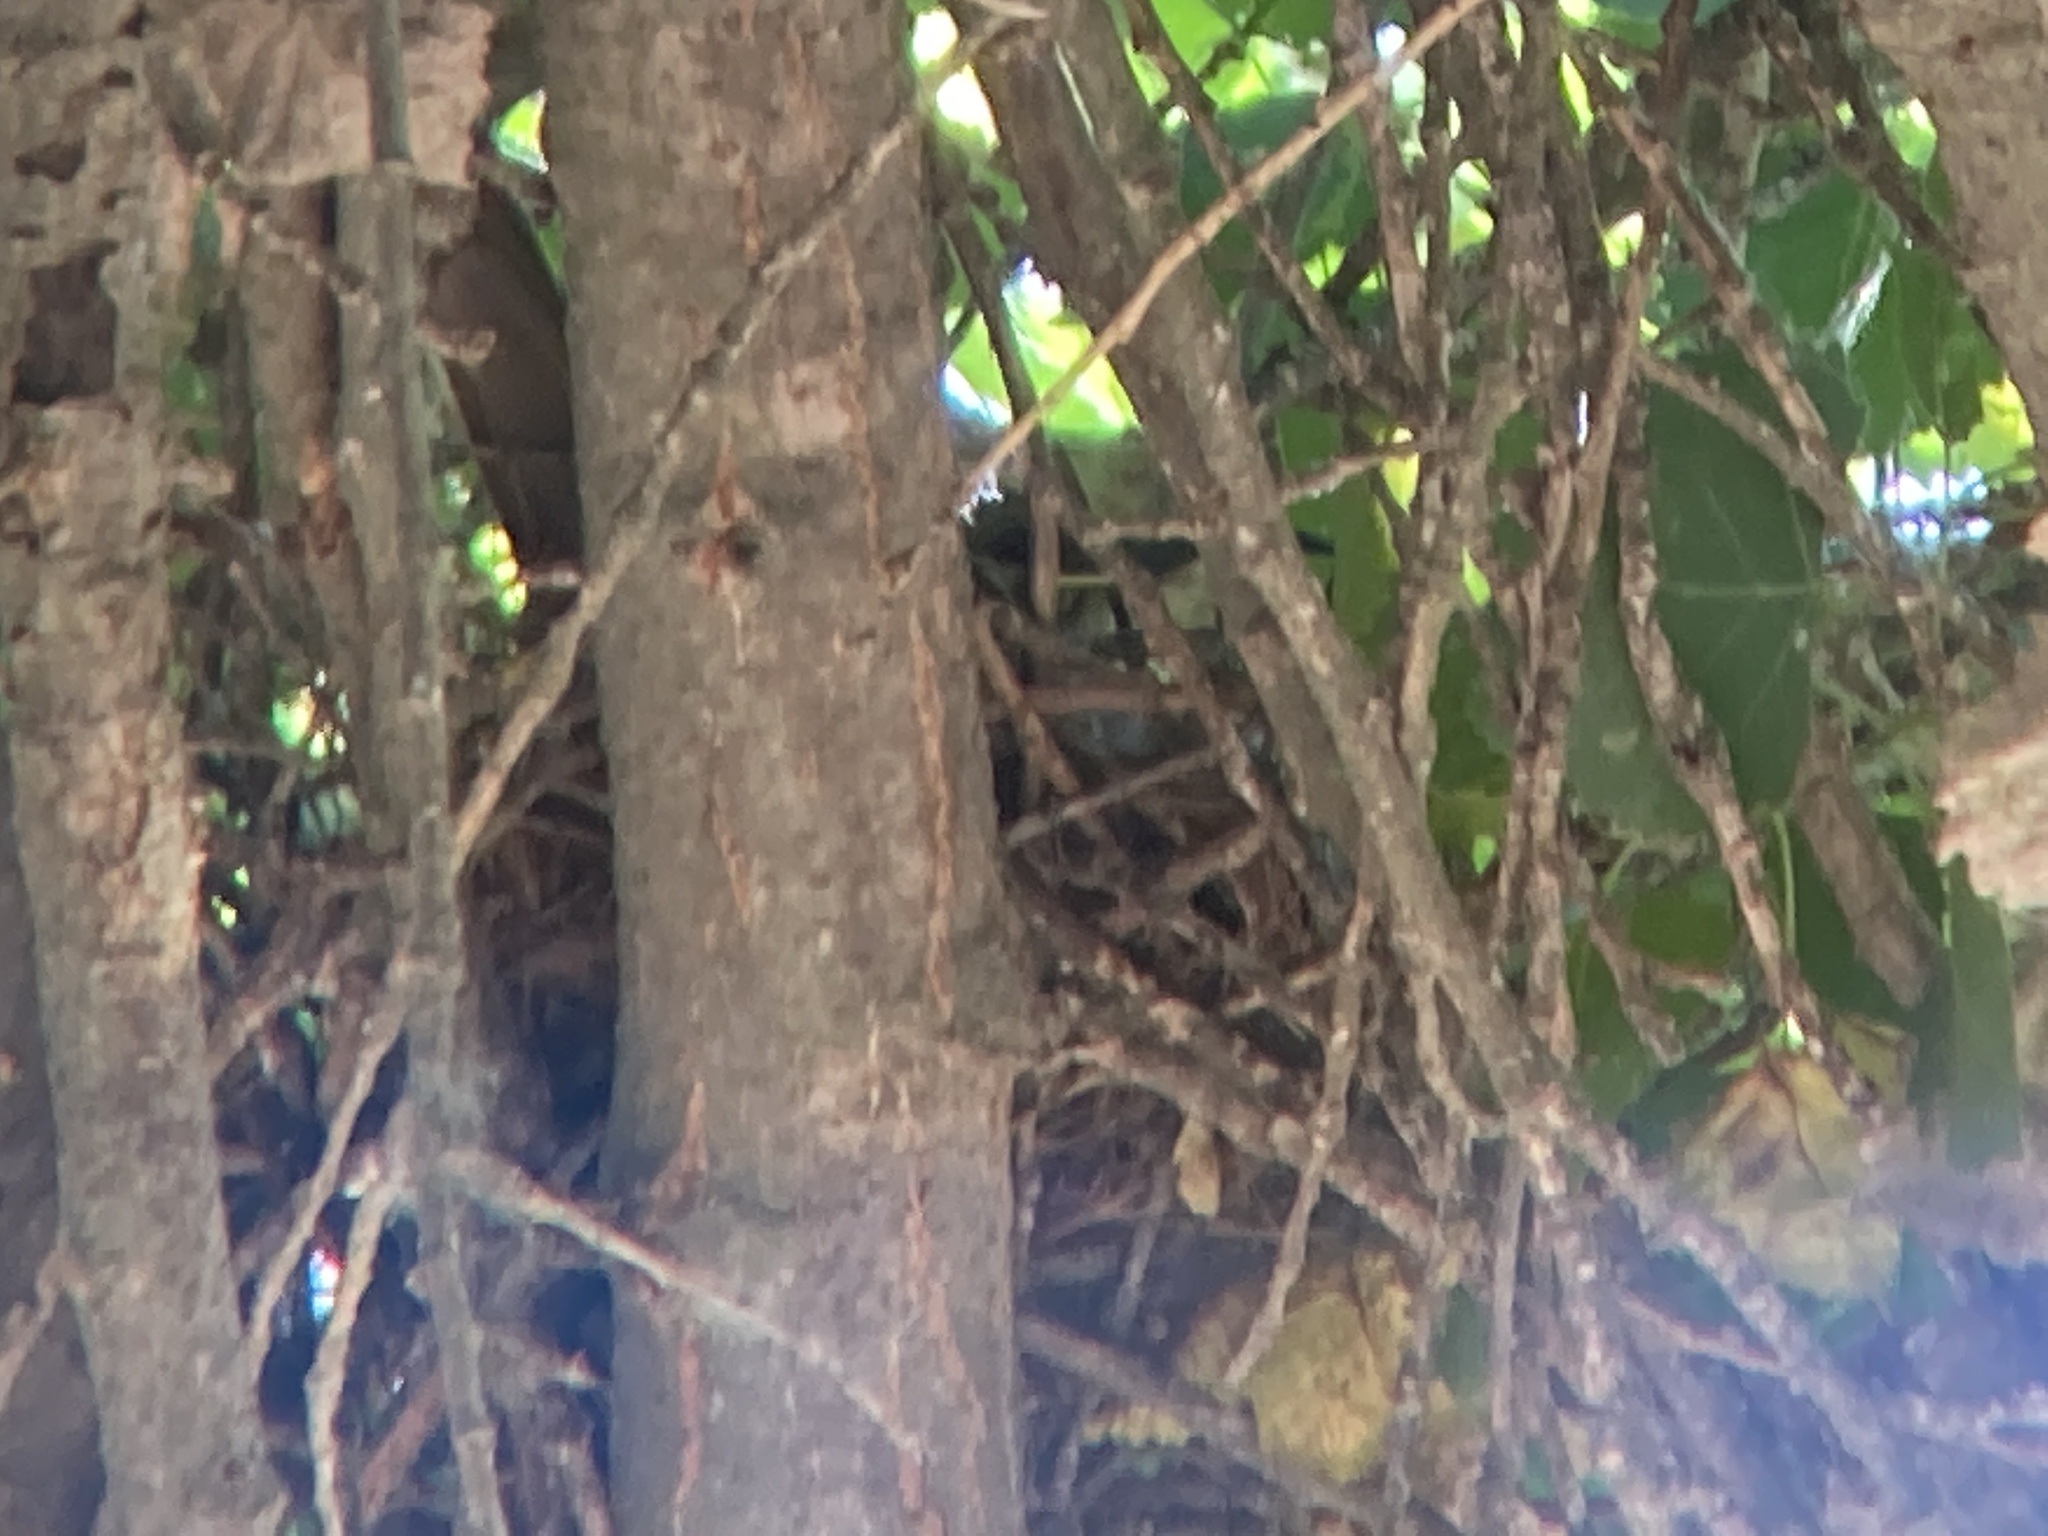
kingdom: Animalia
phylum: Chordata
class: Aves
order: Passeriformes
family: Mimidae
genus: Toxostoma
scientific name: Toxostoma redivivum
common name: California thrasher
